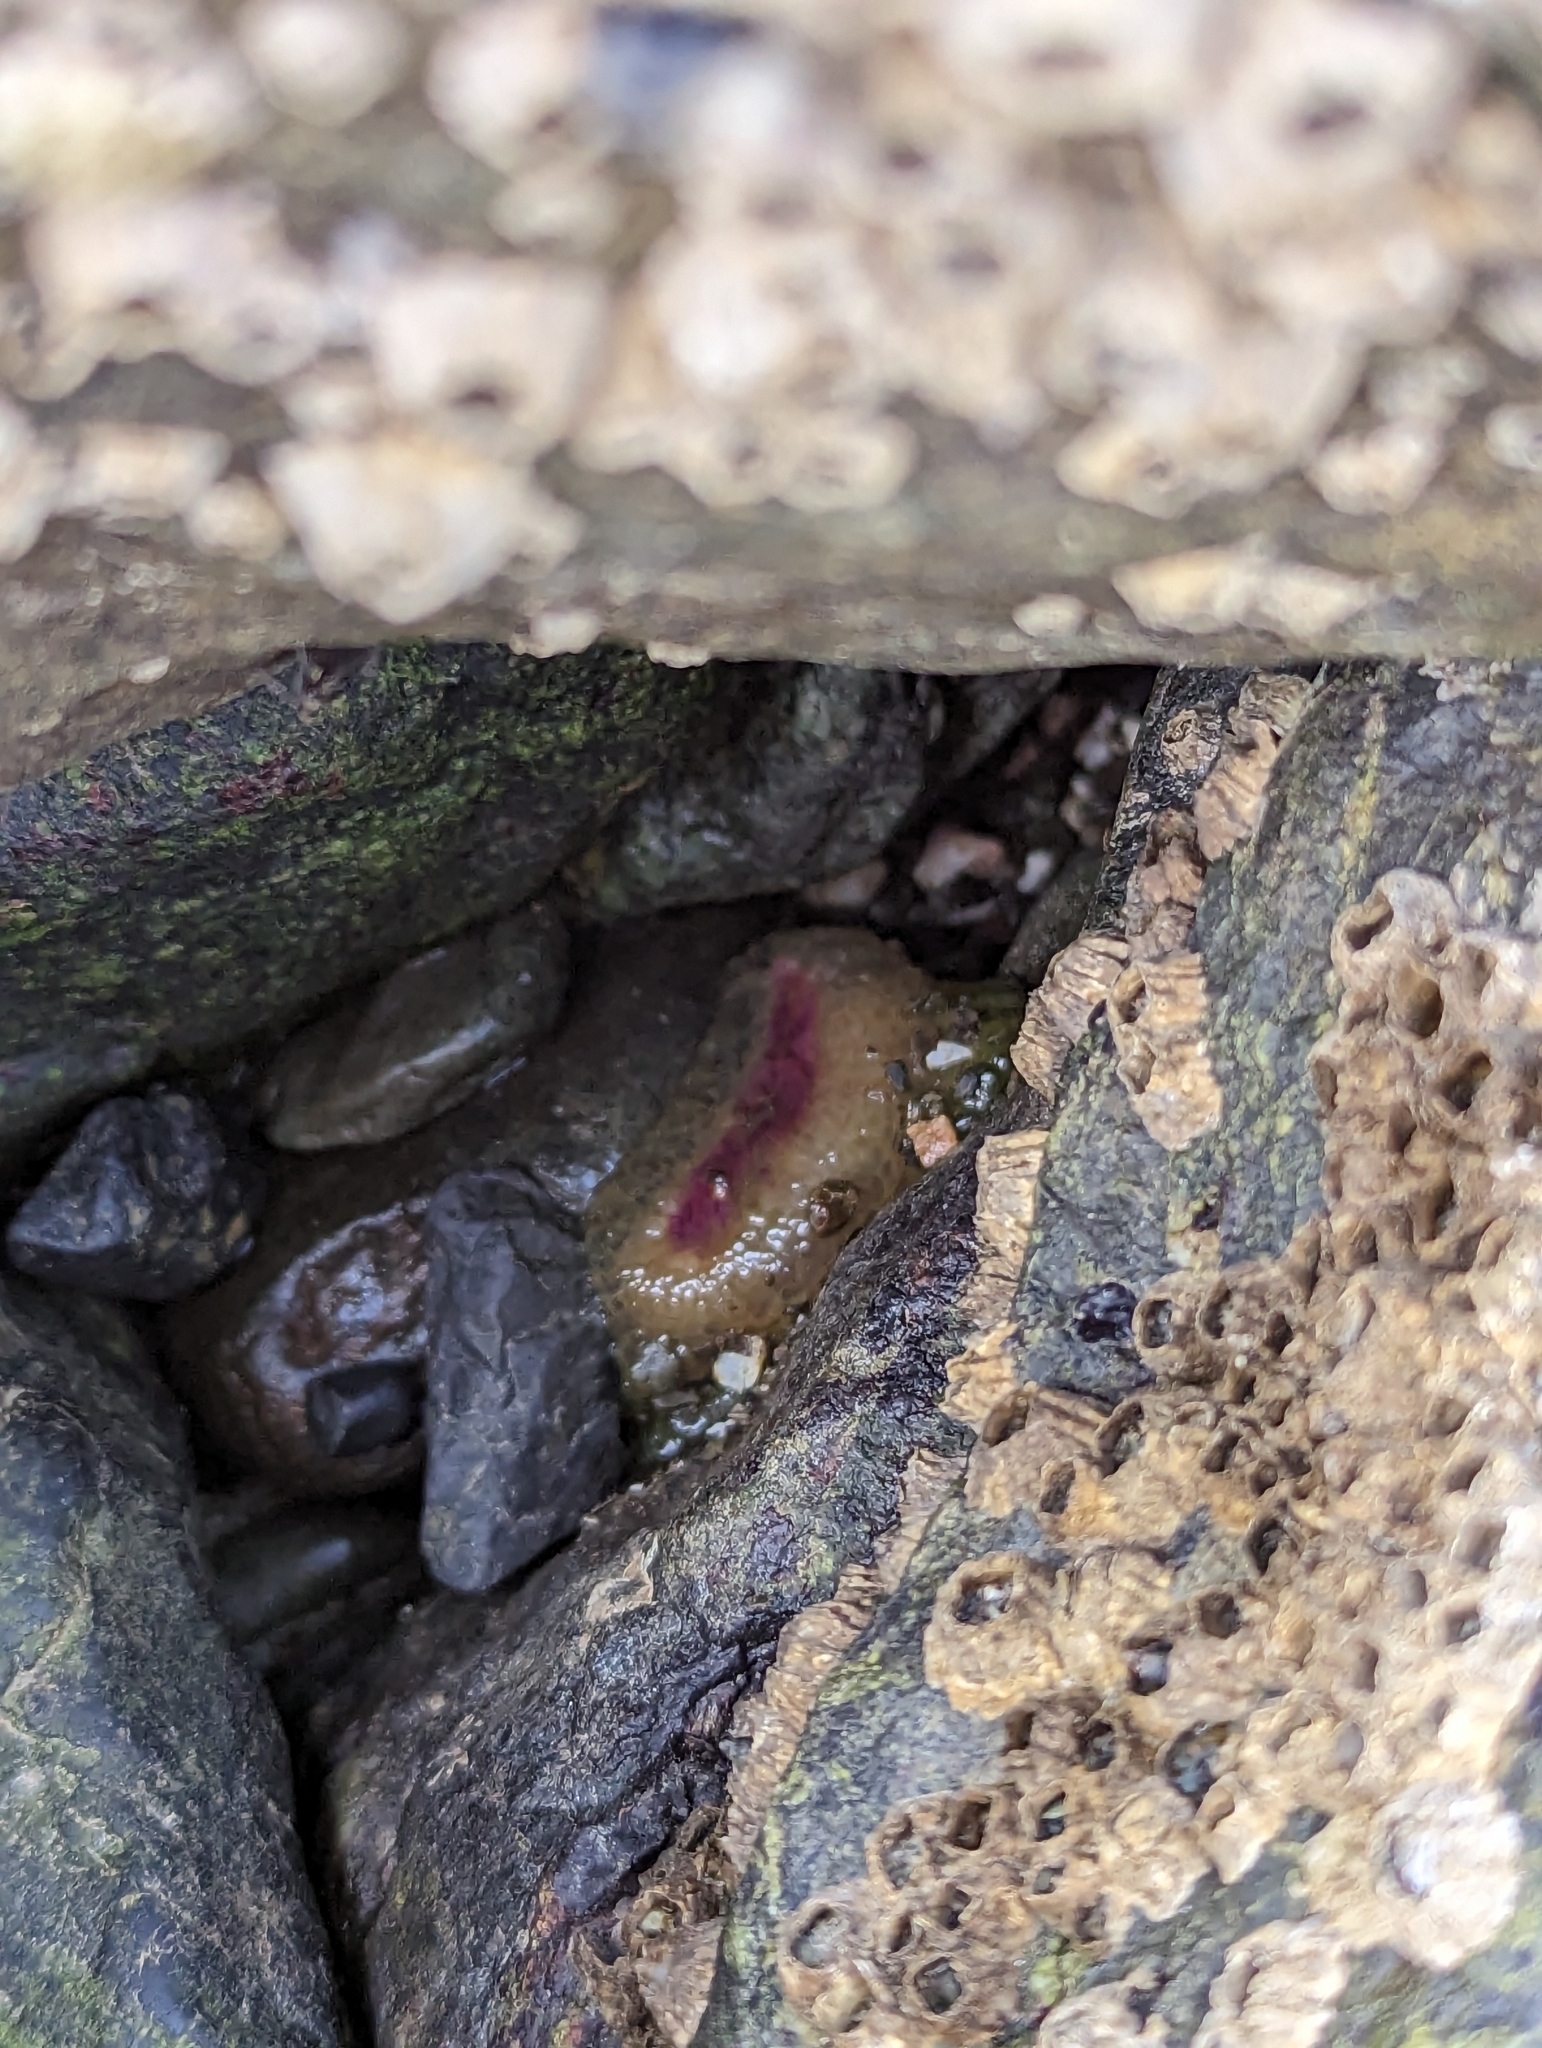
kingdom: Animalia
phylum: Cnidaria
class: Anthozoa
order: Actiniaria
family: Actiniidae
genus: Anthopleura
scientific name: Anthopleura elegantissima
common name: Clonal anemone
